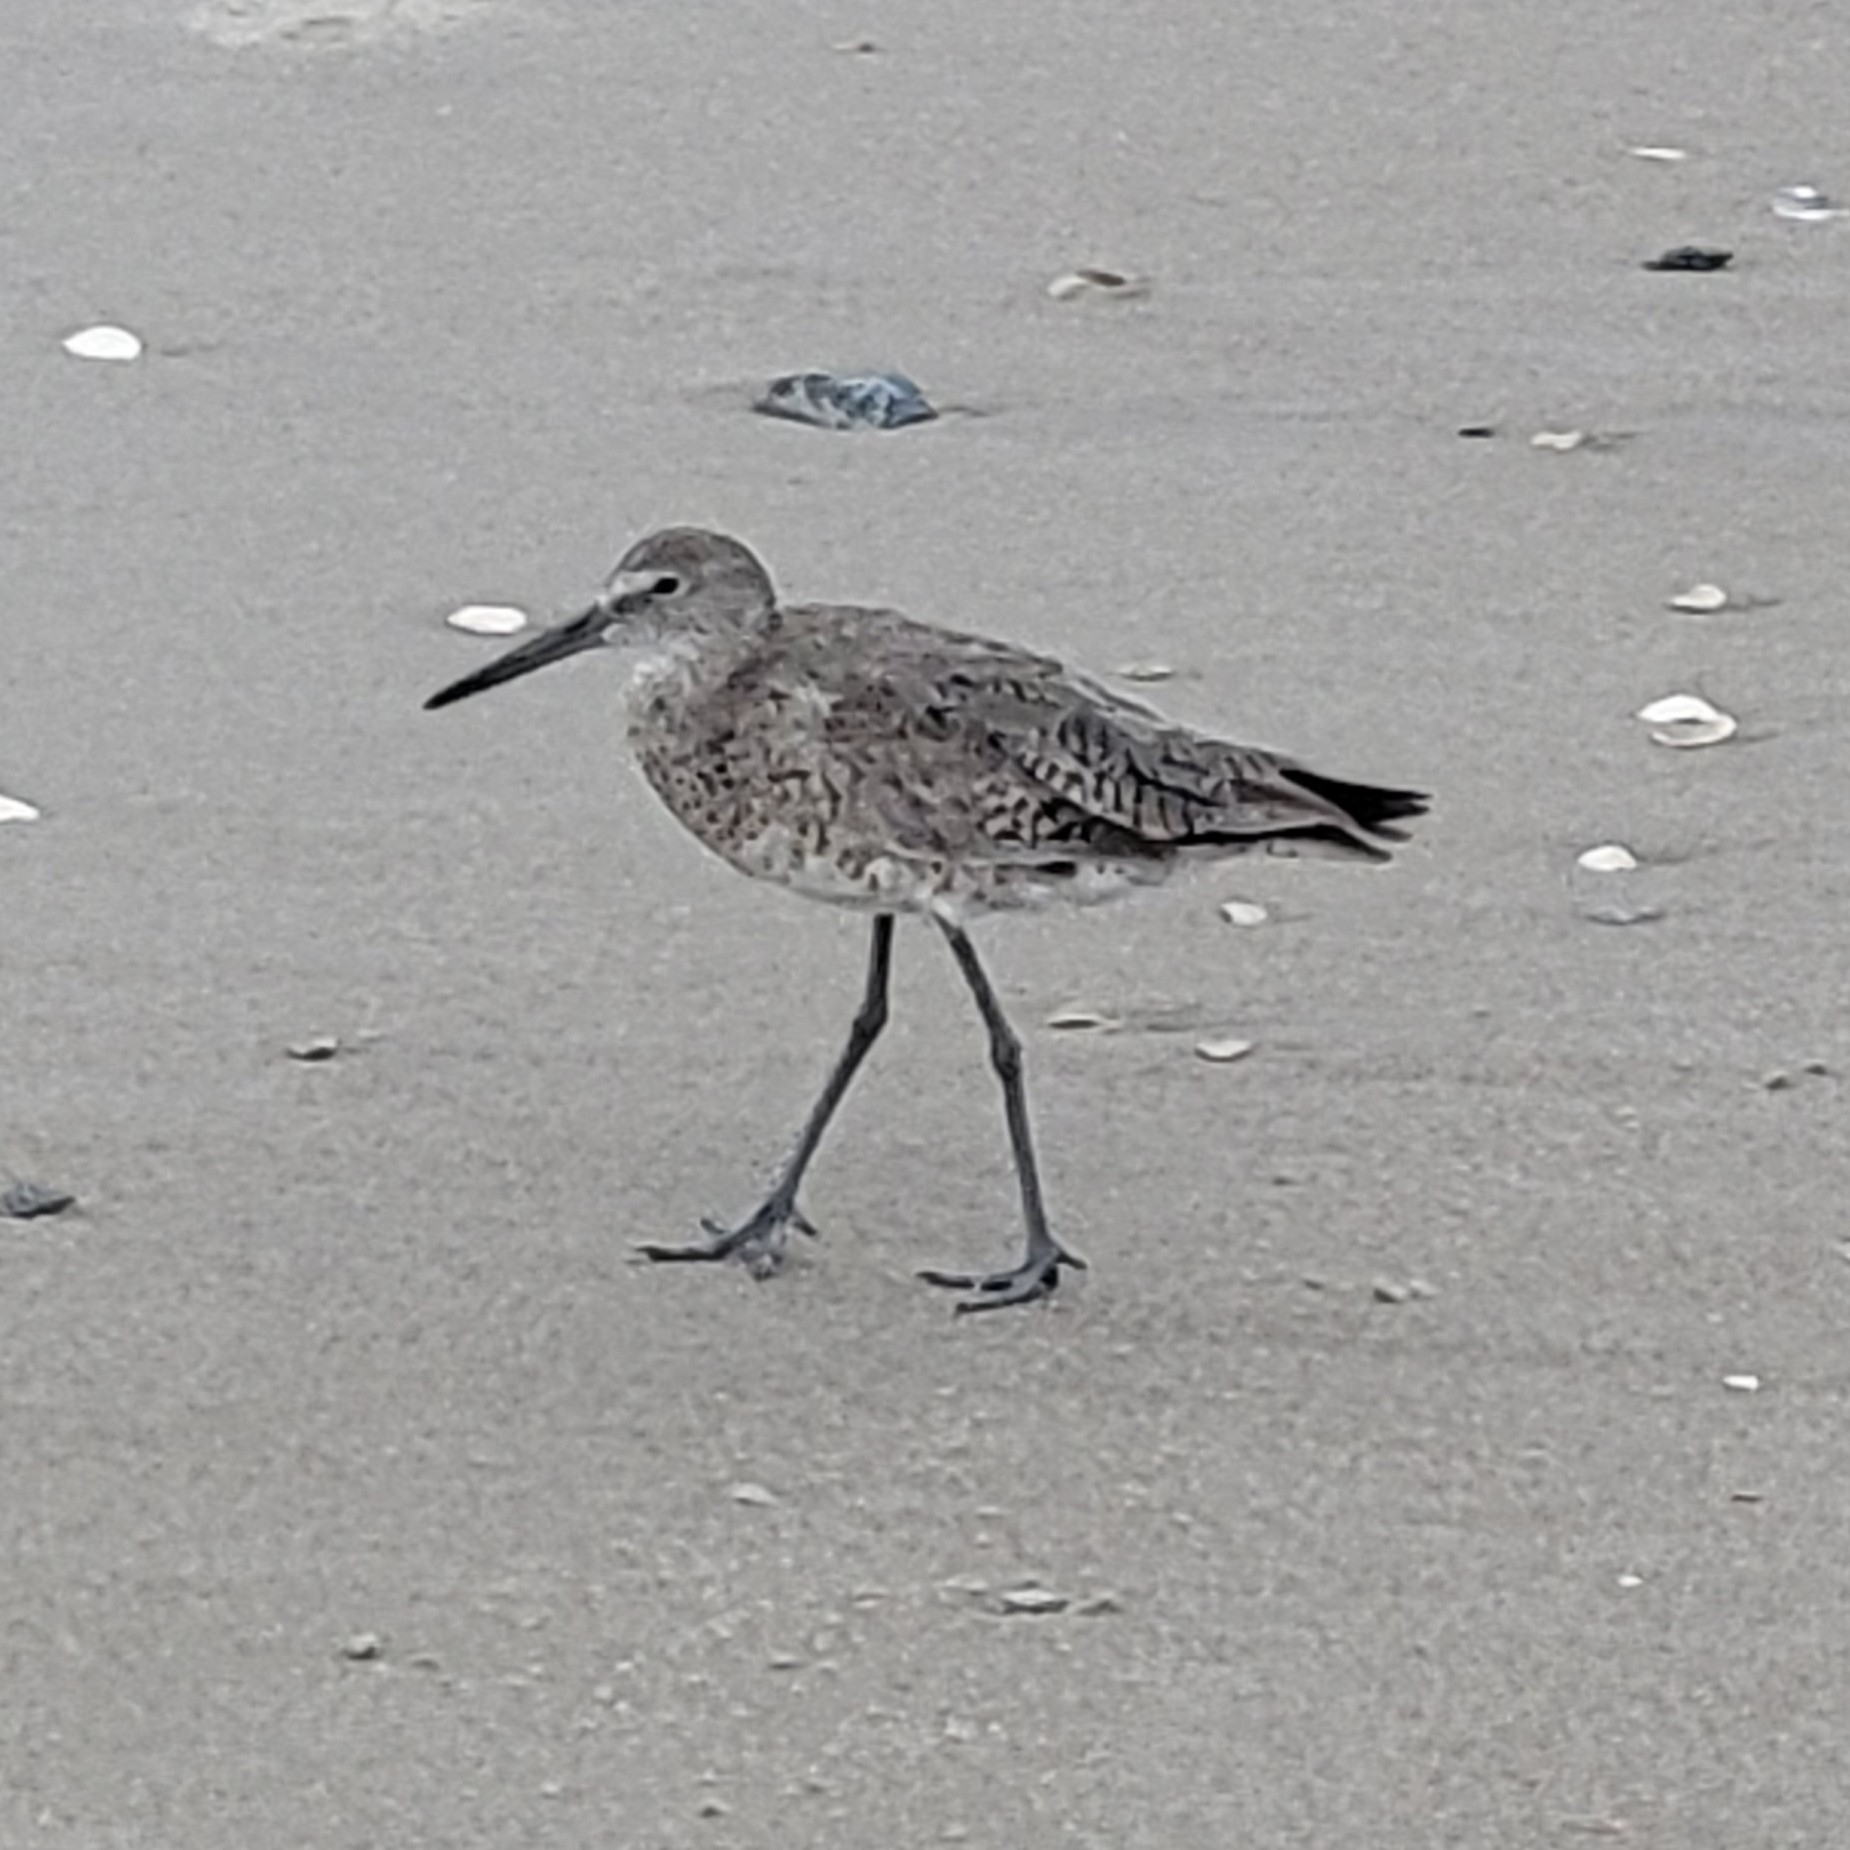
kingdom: Animalia
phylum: Chordata
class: Aves
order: Charadriiformes
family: Scolopacidae
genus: Tringa
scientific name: Tringa semipalmata
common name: Willet
